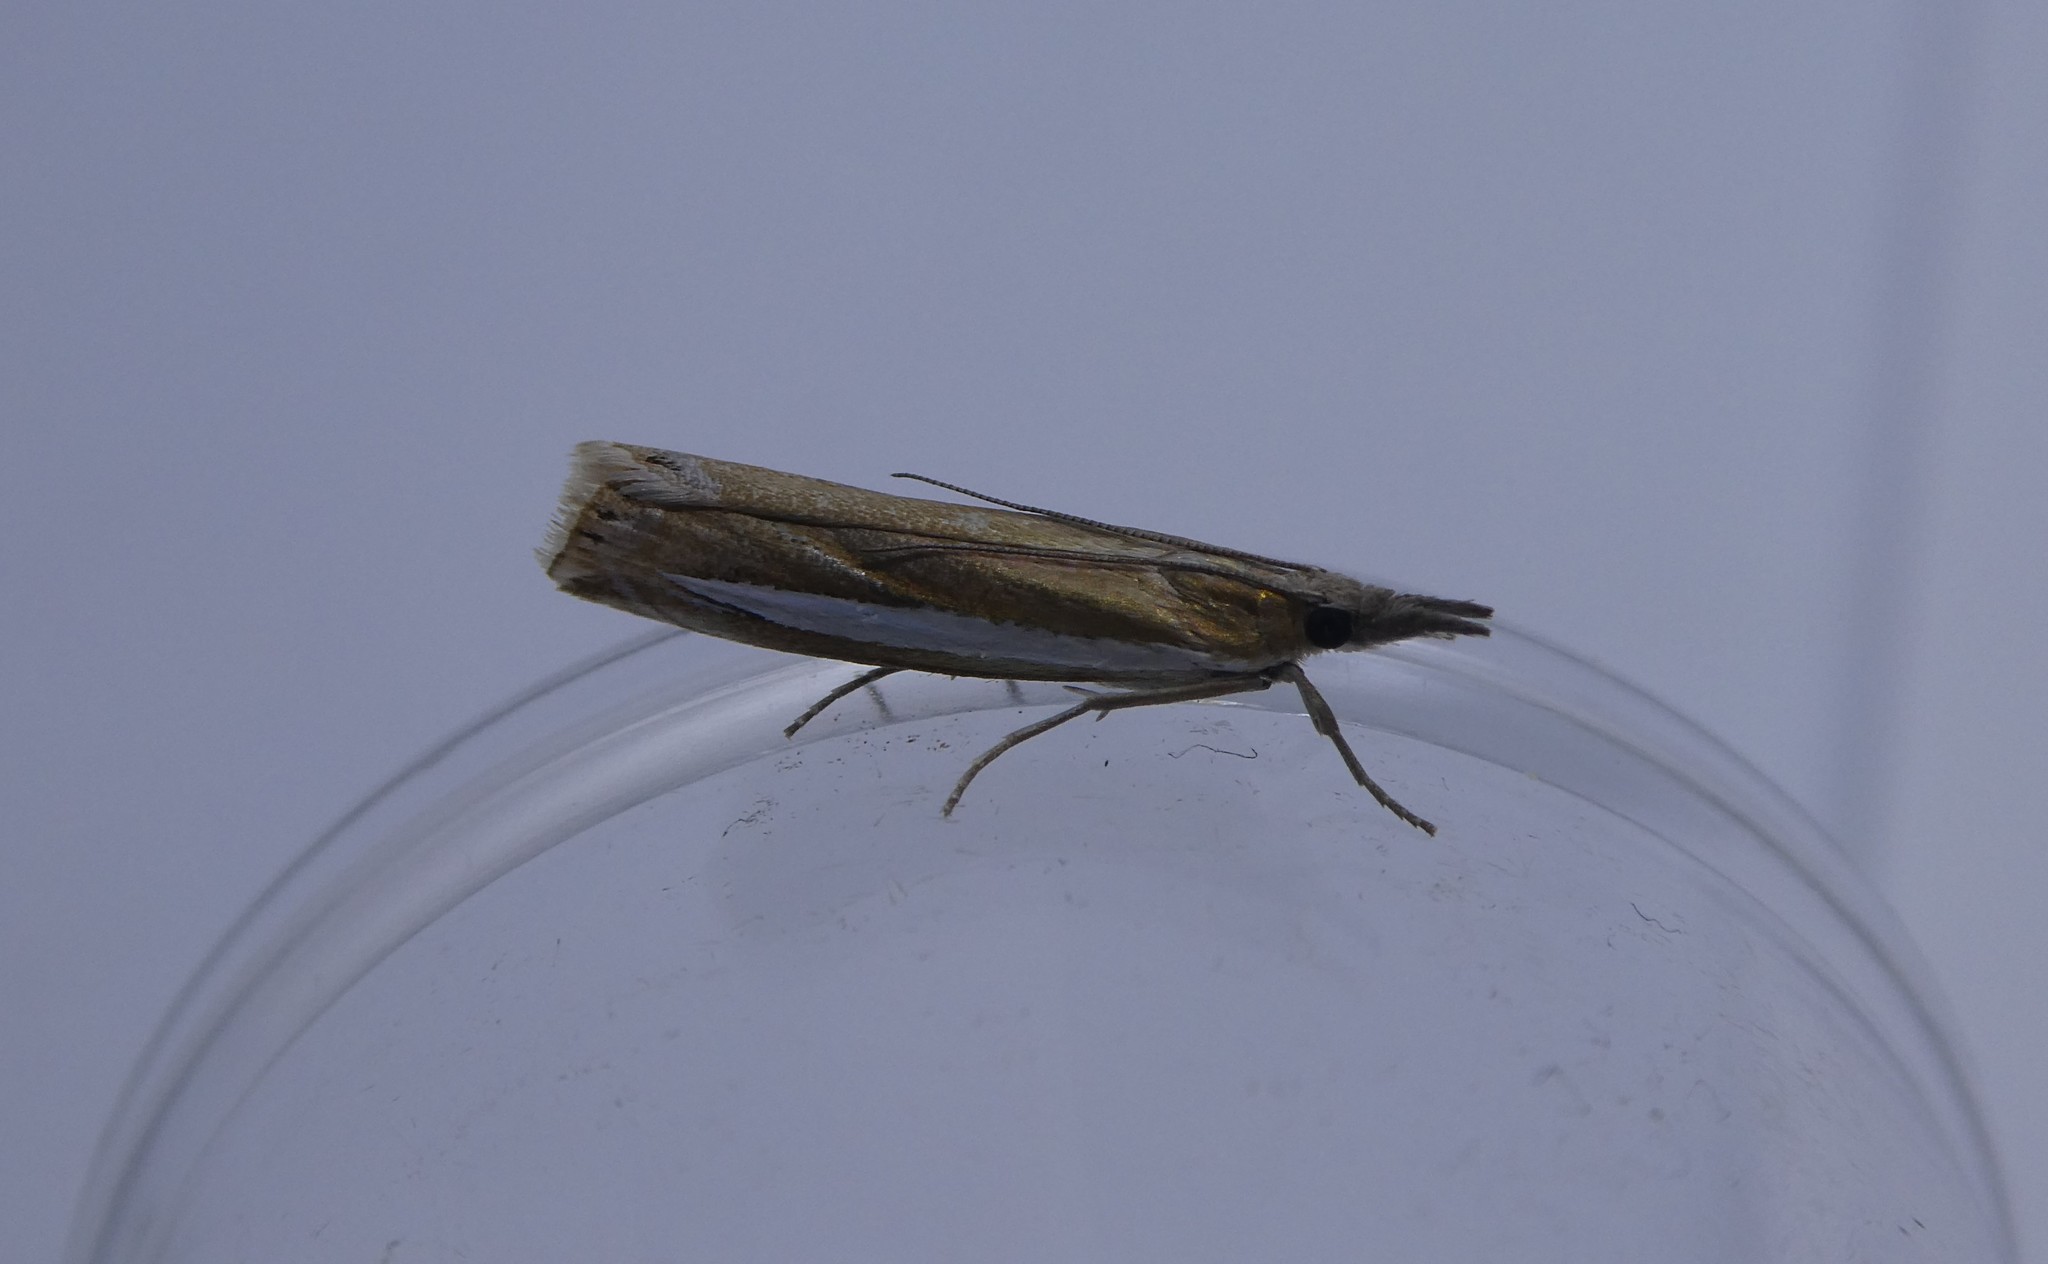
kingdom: Animalia
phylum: Arthropoda
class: Insecta
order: Lepidoptera
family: Crambidae
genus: Crambus
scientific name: Crambus praefectellus
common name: Common grass-veneer
